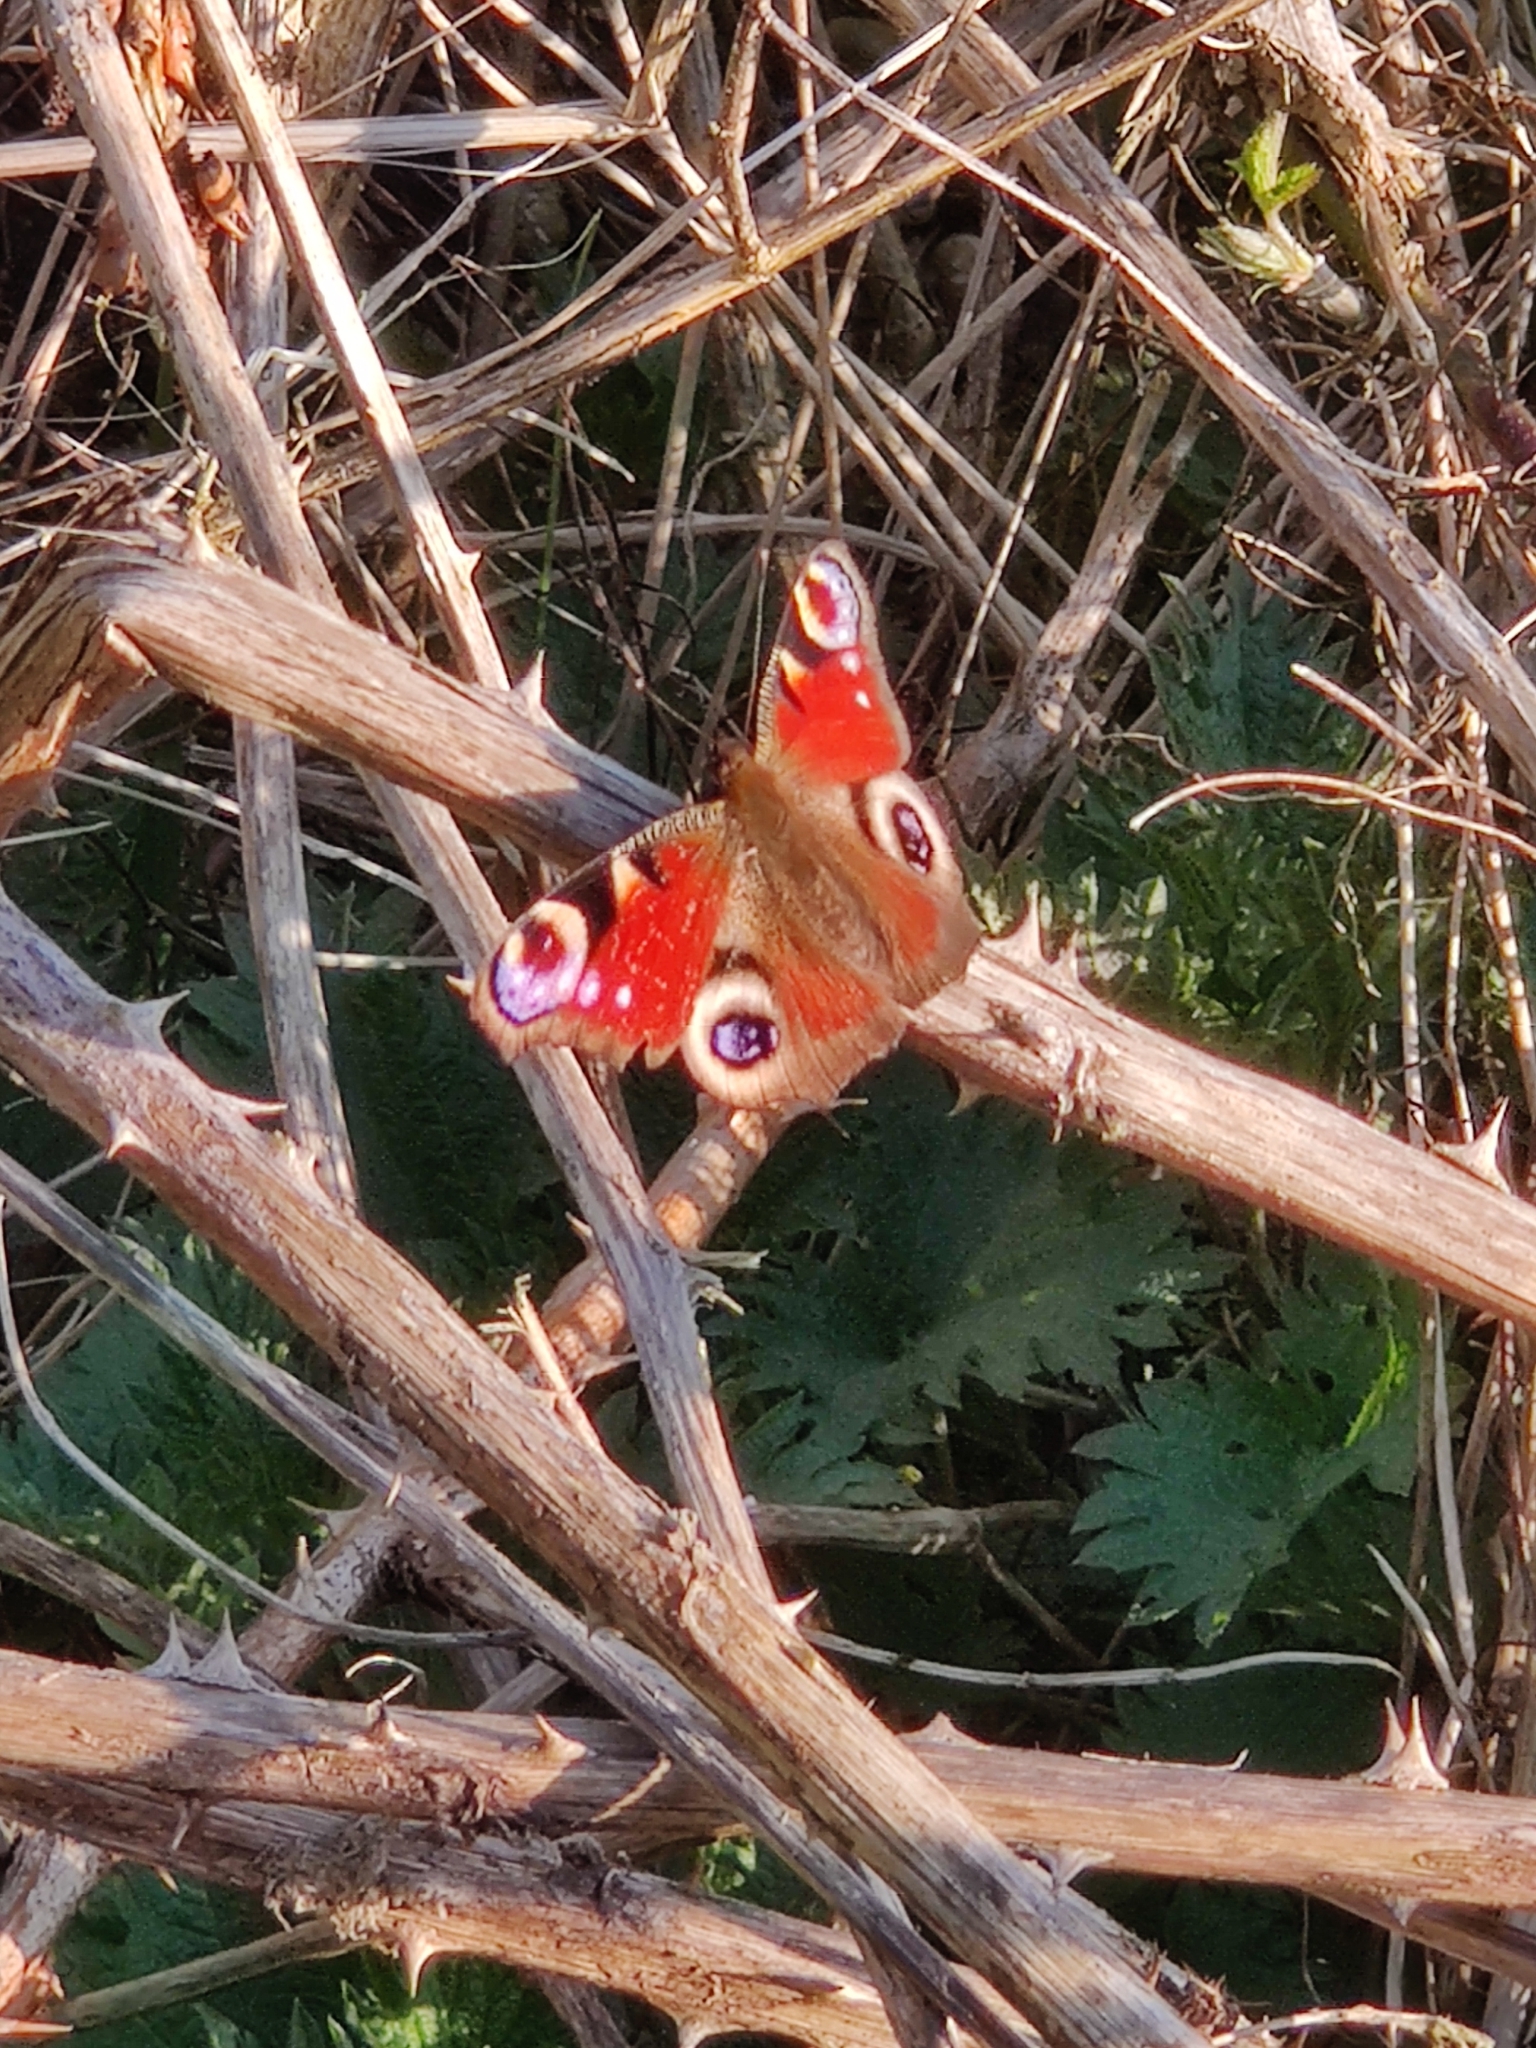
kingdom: Animalia
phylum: Arthropoda
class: Insecta
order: Lepidoptera
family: Nymphalidae
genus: Aglais
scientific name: Aglais io
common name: Peacock
